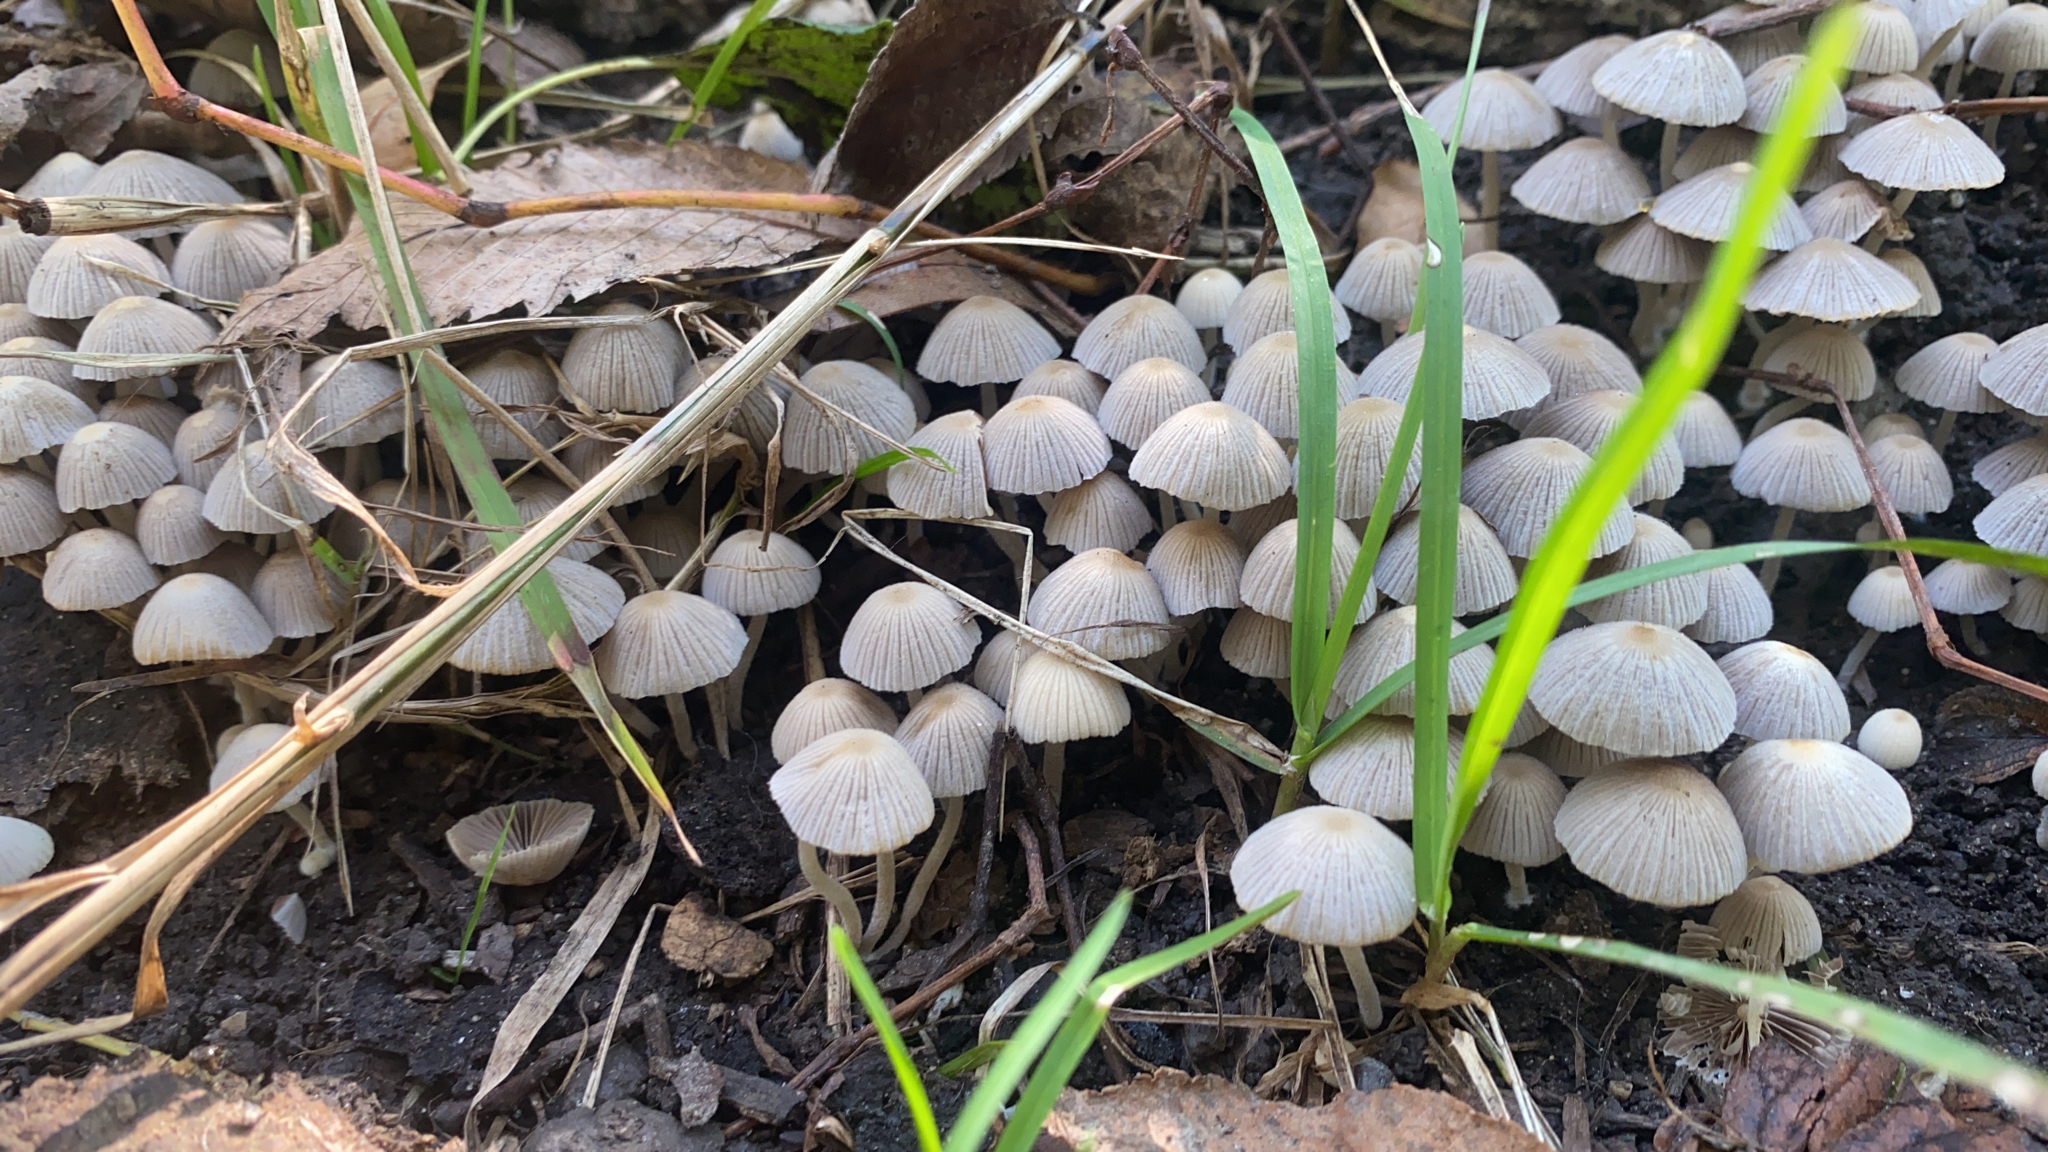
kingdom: Fungi
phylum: Basidiomycota
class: Agaricomycetes
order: Agaricales
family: Psathyrellaceae
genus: Coprinellus
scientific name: Coprinellus disseminatus
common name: Fairies' bonnets
